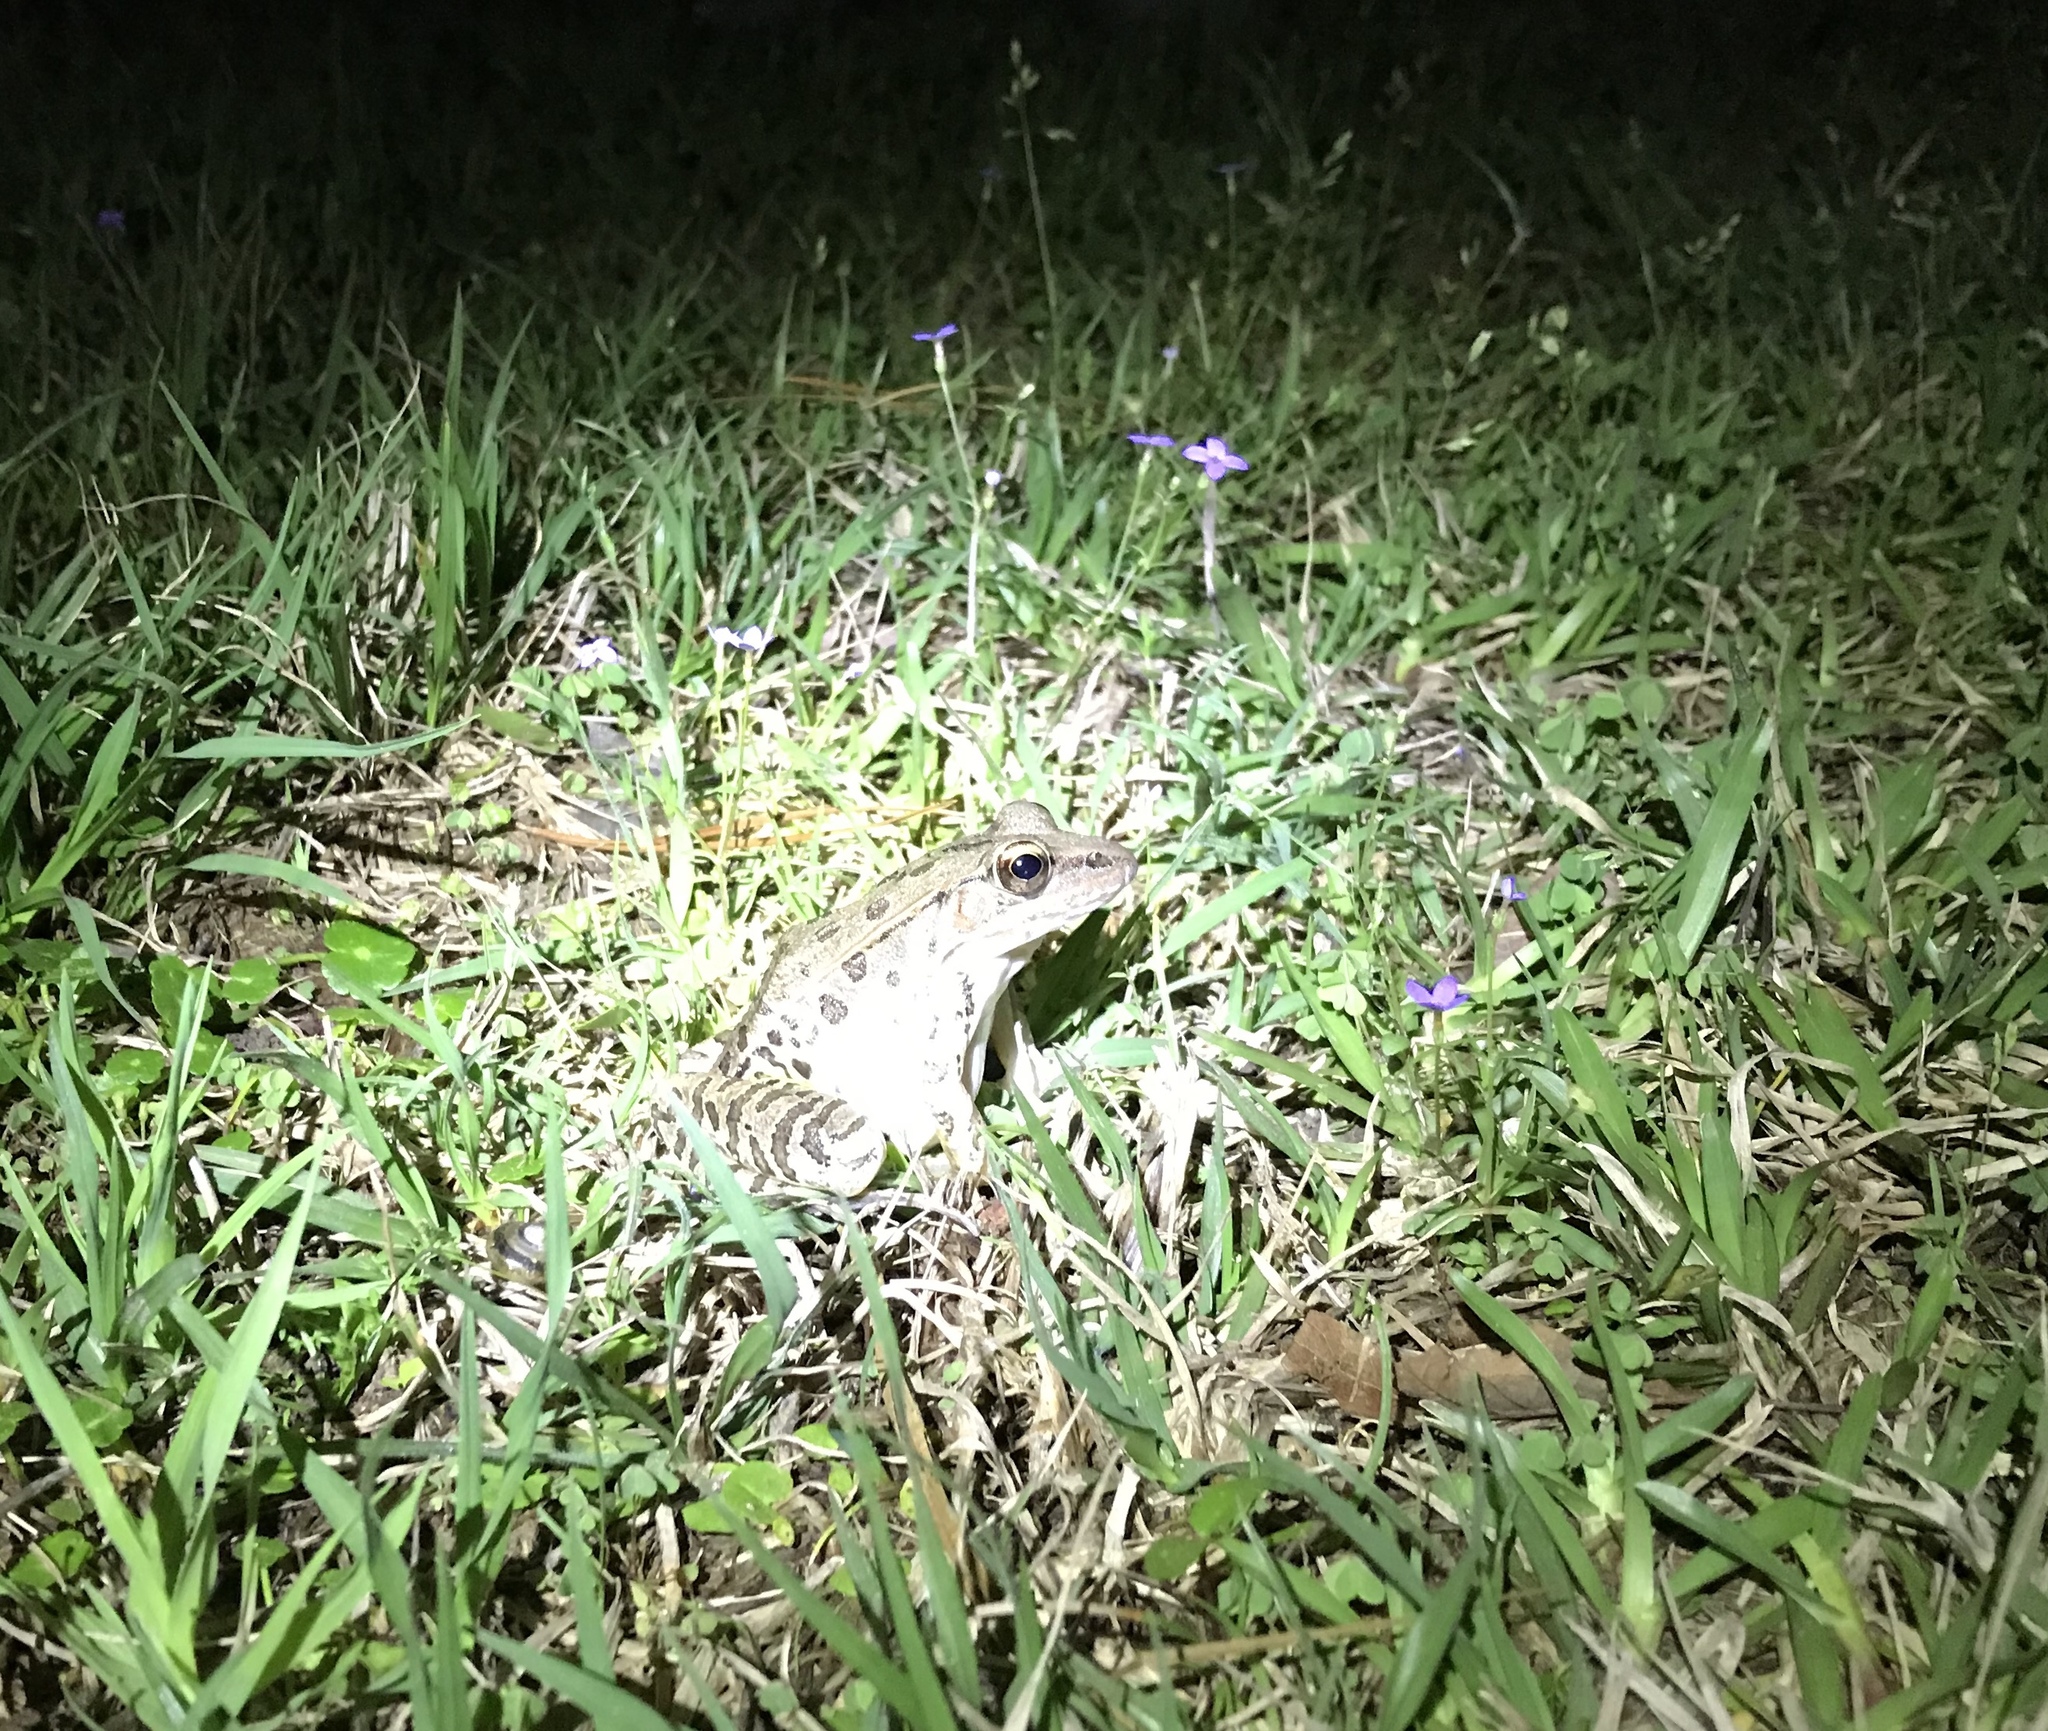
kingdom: Animalia
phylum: Chordata
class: Amphibia
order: Anura
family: Ranidae
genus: Lithobates
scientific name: Lithobates sphenocephalus
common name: Southern leopard frog
